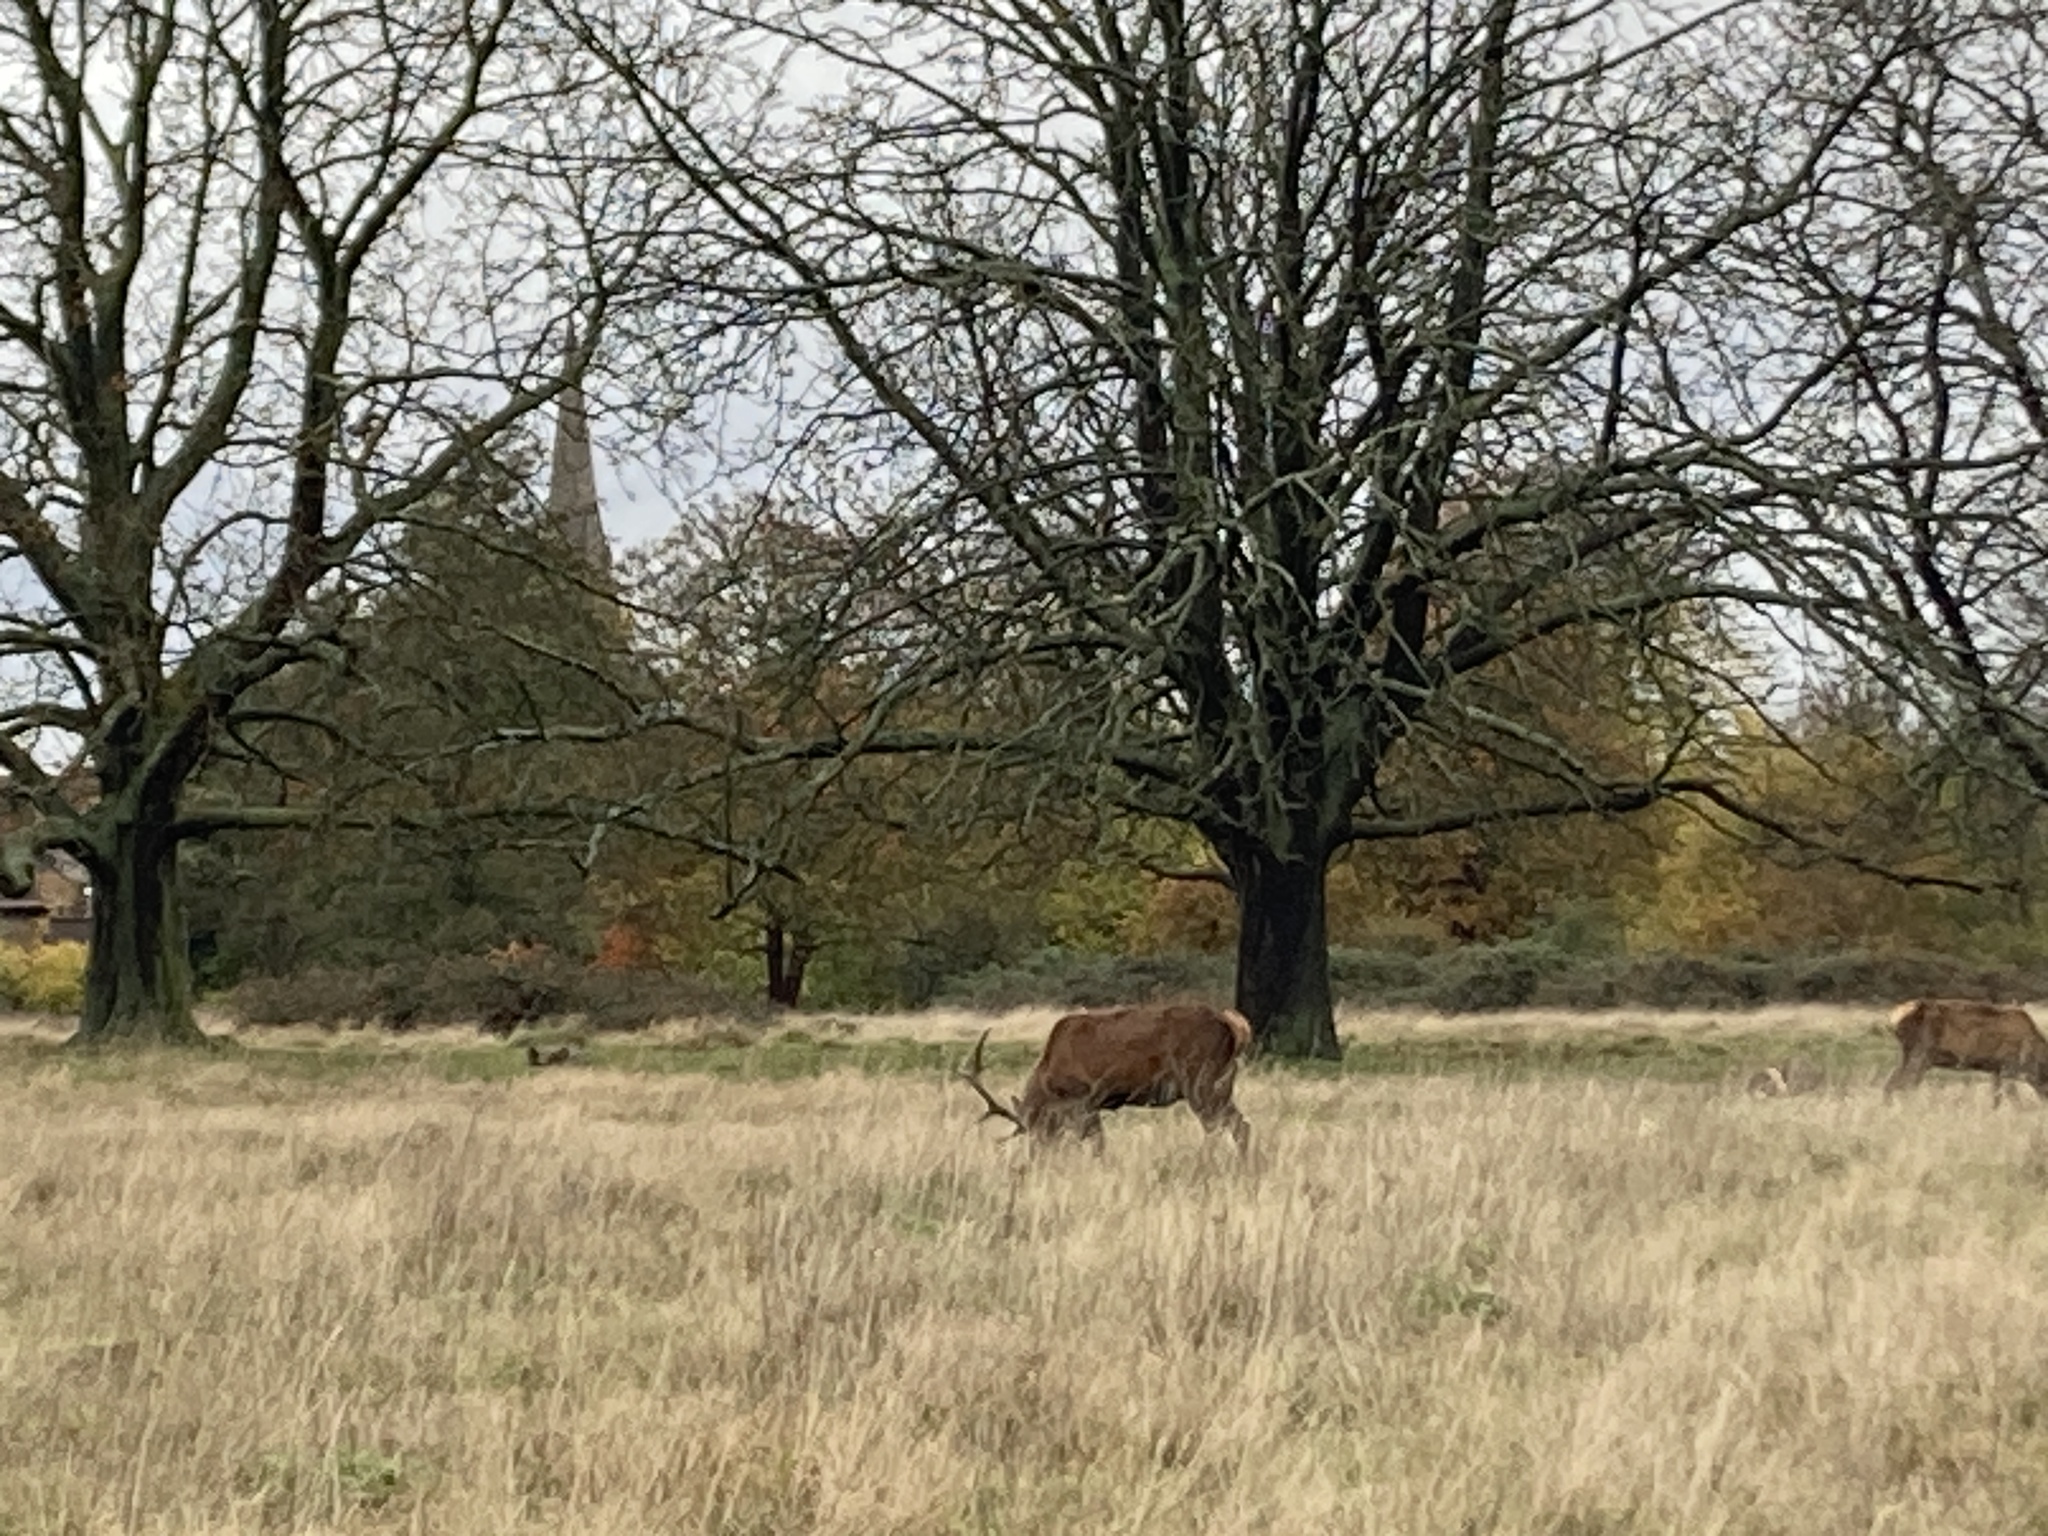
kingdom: Animalia
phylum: Chordata
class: Mammalia
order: Artiodactyla
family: Cervidae
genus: Cervus
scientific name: Cervus elaphus
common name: Red deer
